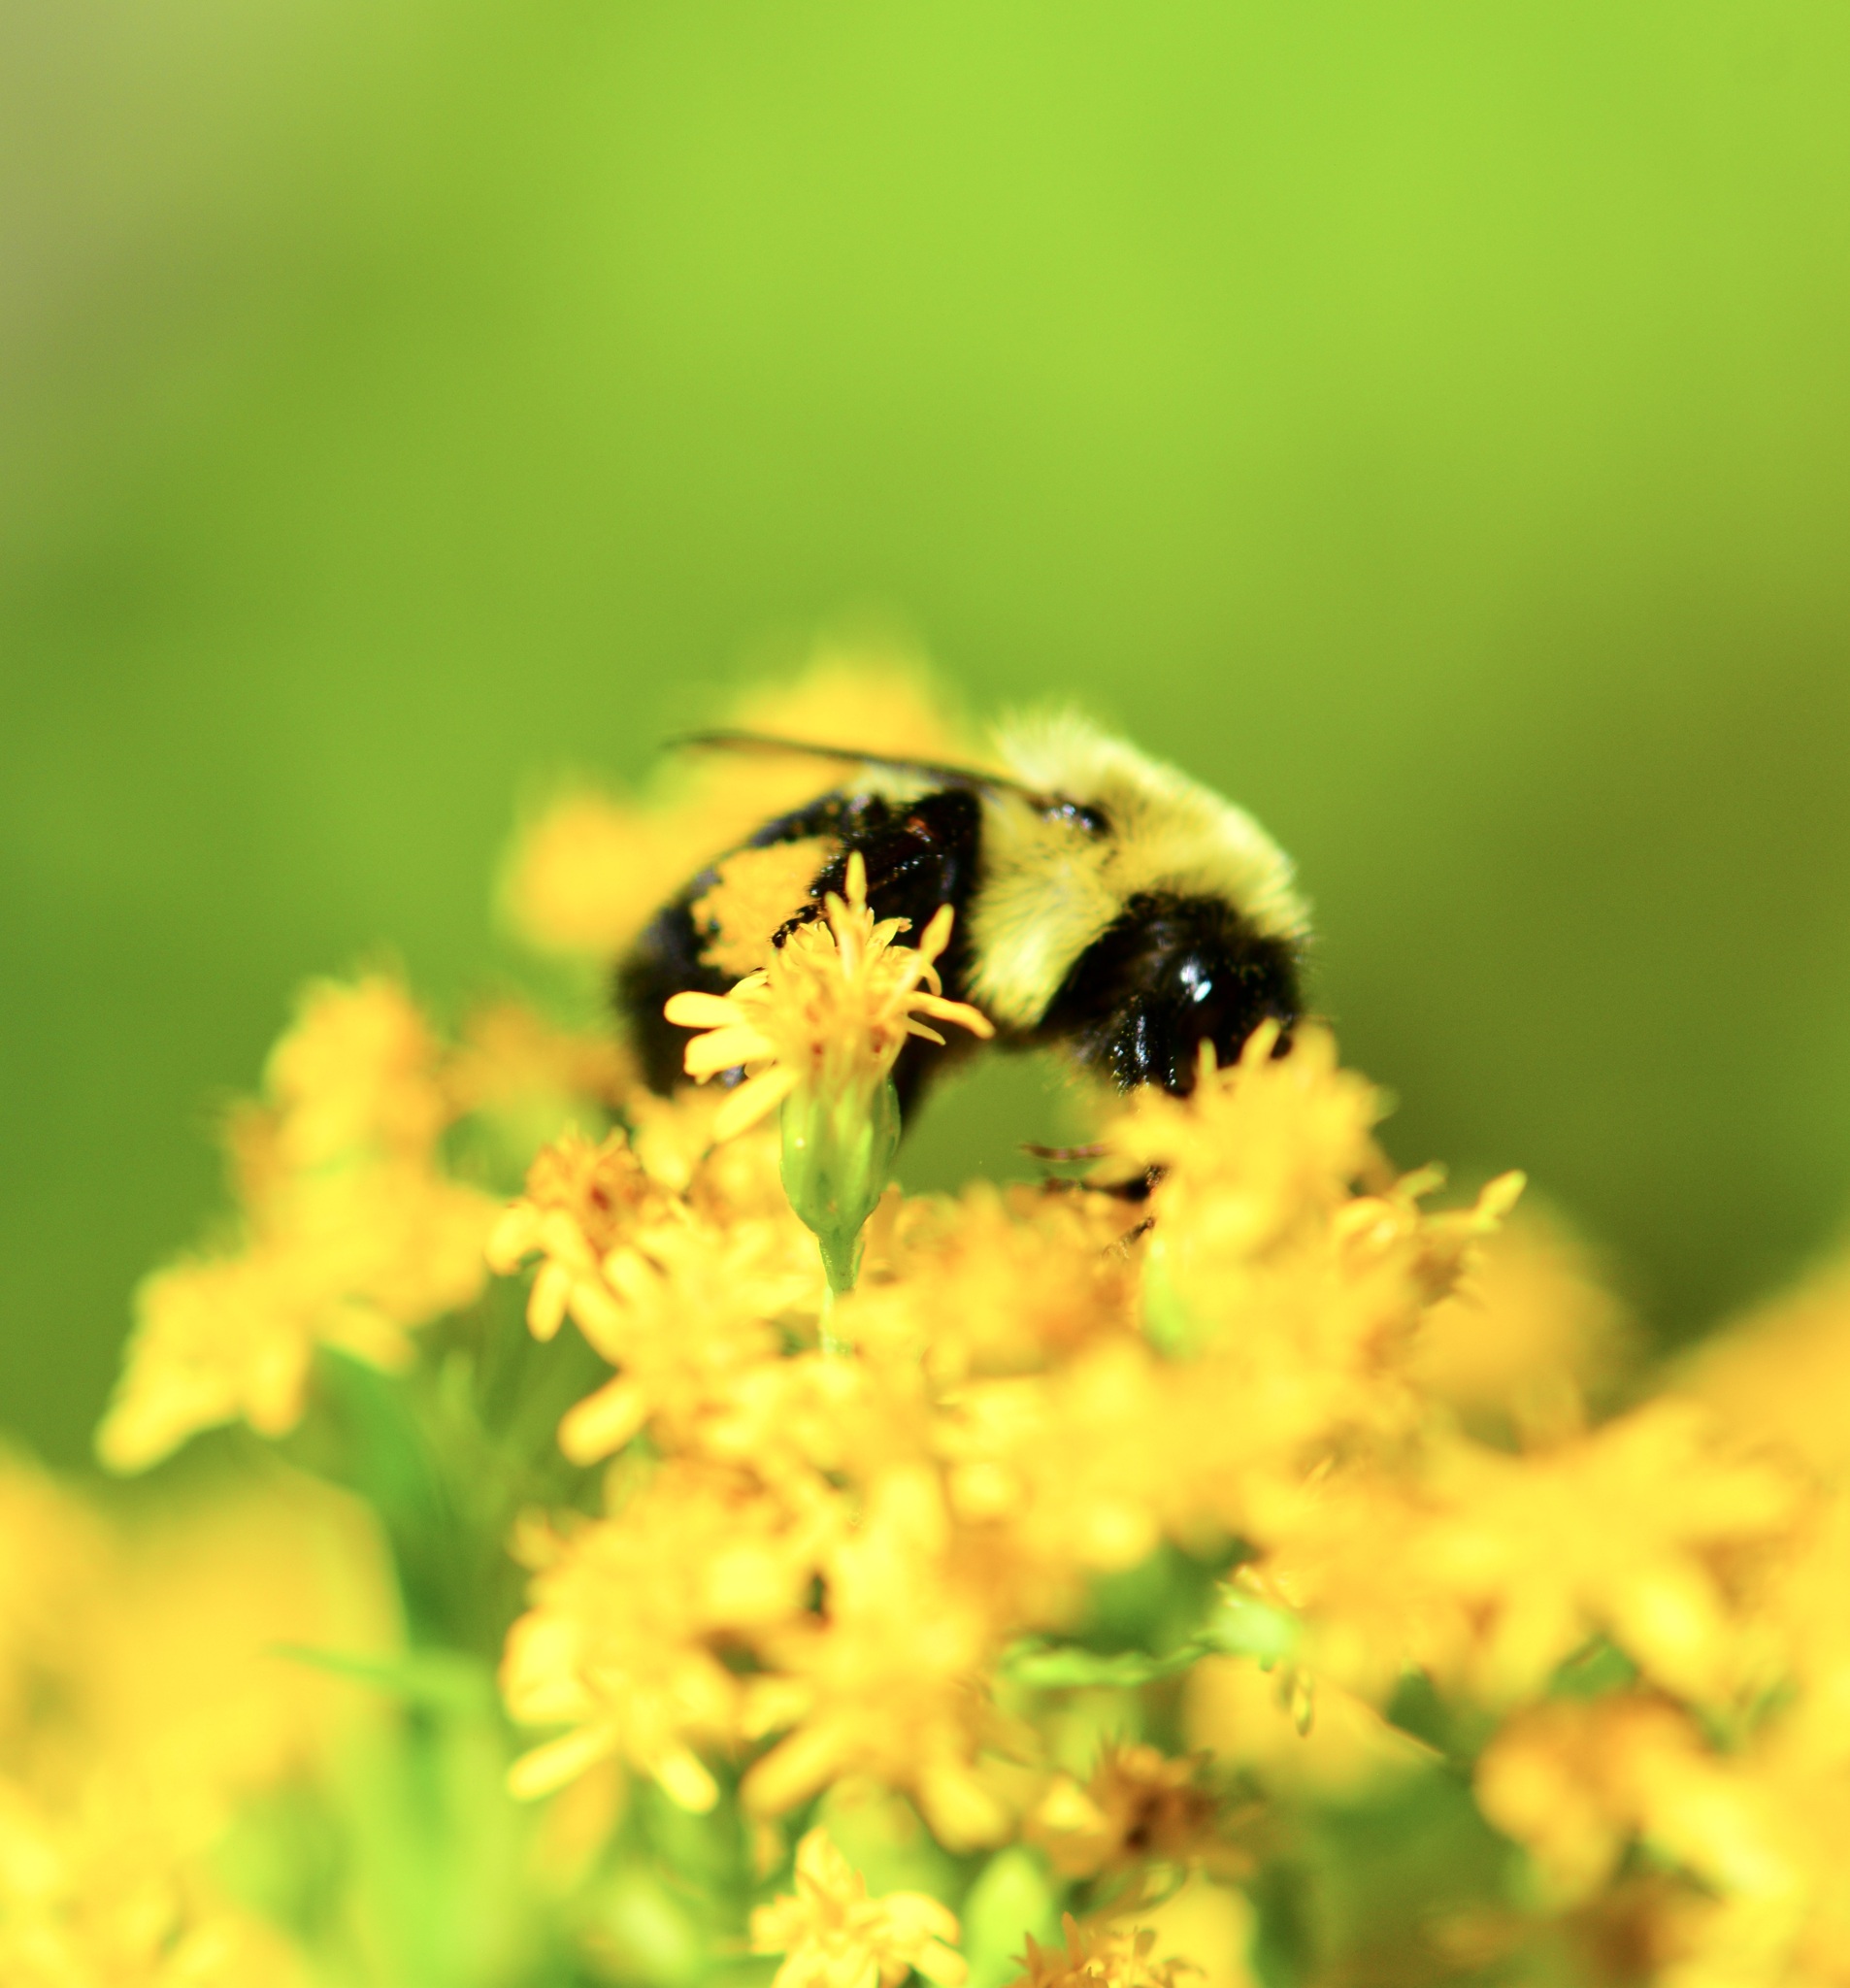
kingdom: Animalia
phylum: Arthropoda
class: Insecta
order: Hymenoptera
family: Apidae
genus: Bombus
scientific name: Bombus impatiens
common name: Common eastern bumble bee
